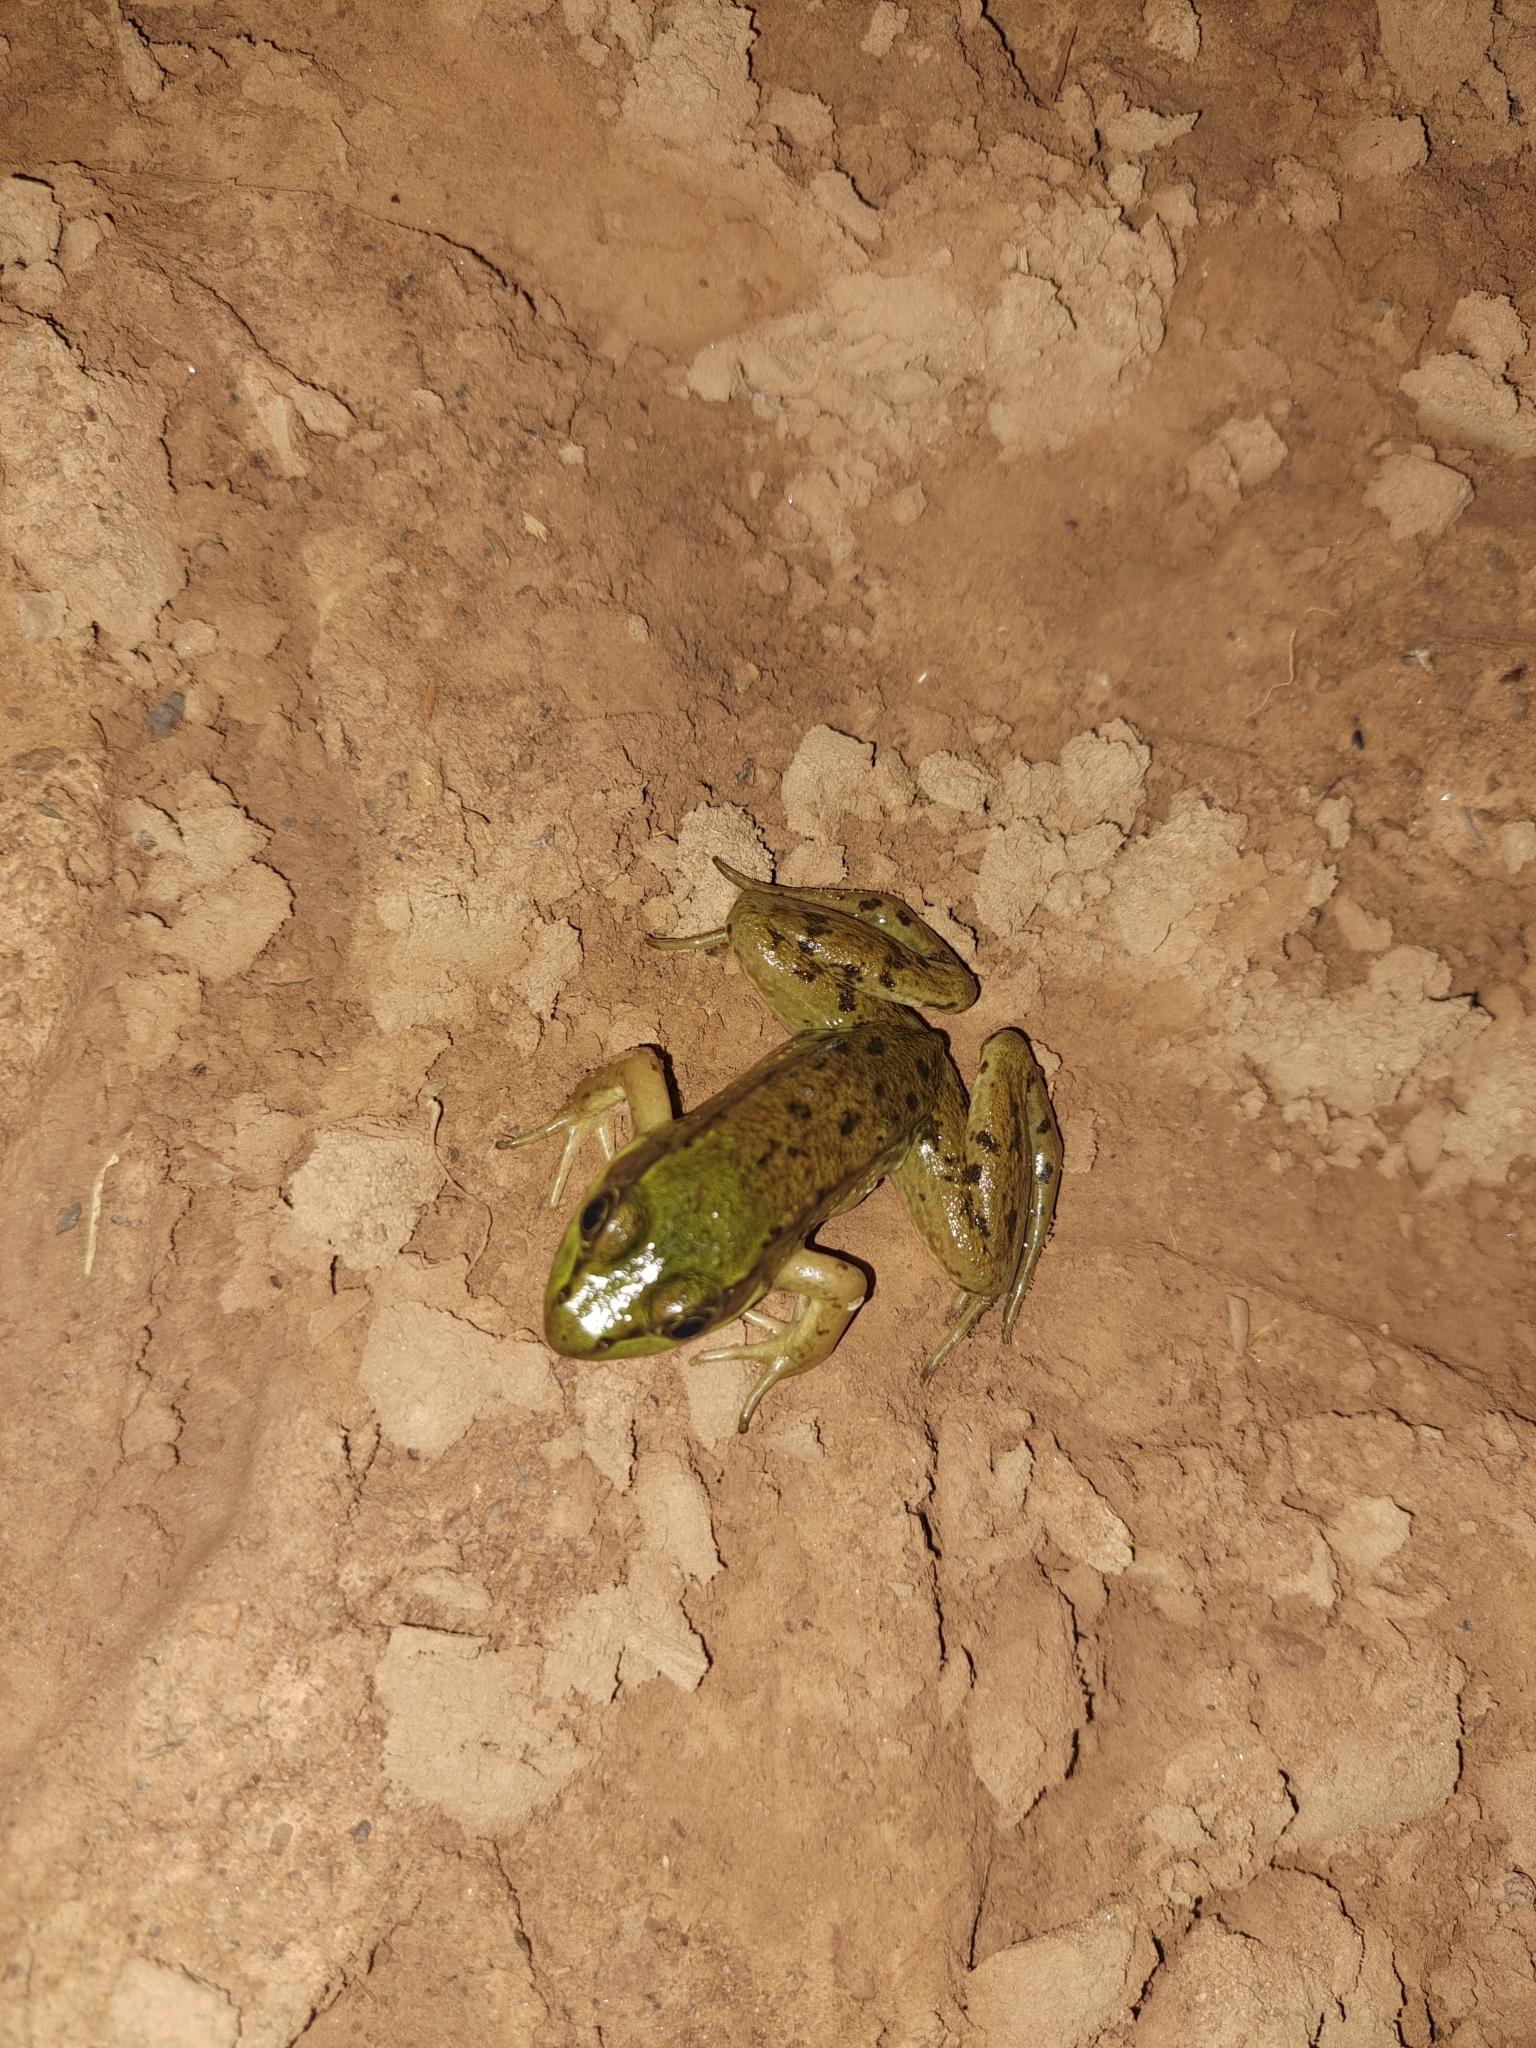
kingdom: Animalia
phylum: Chordata
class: Amphibia
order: Anura
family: Ranidae
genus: Lithobates
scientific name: Lithobates clamitans
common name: Green frog
